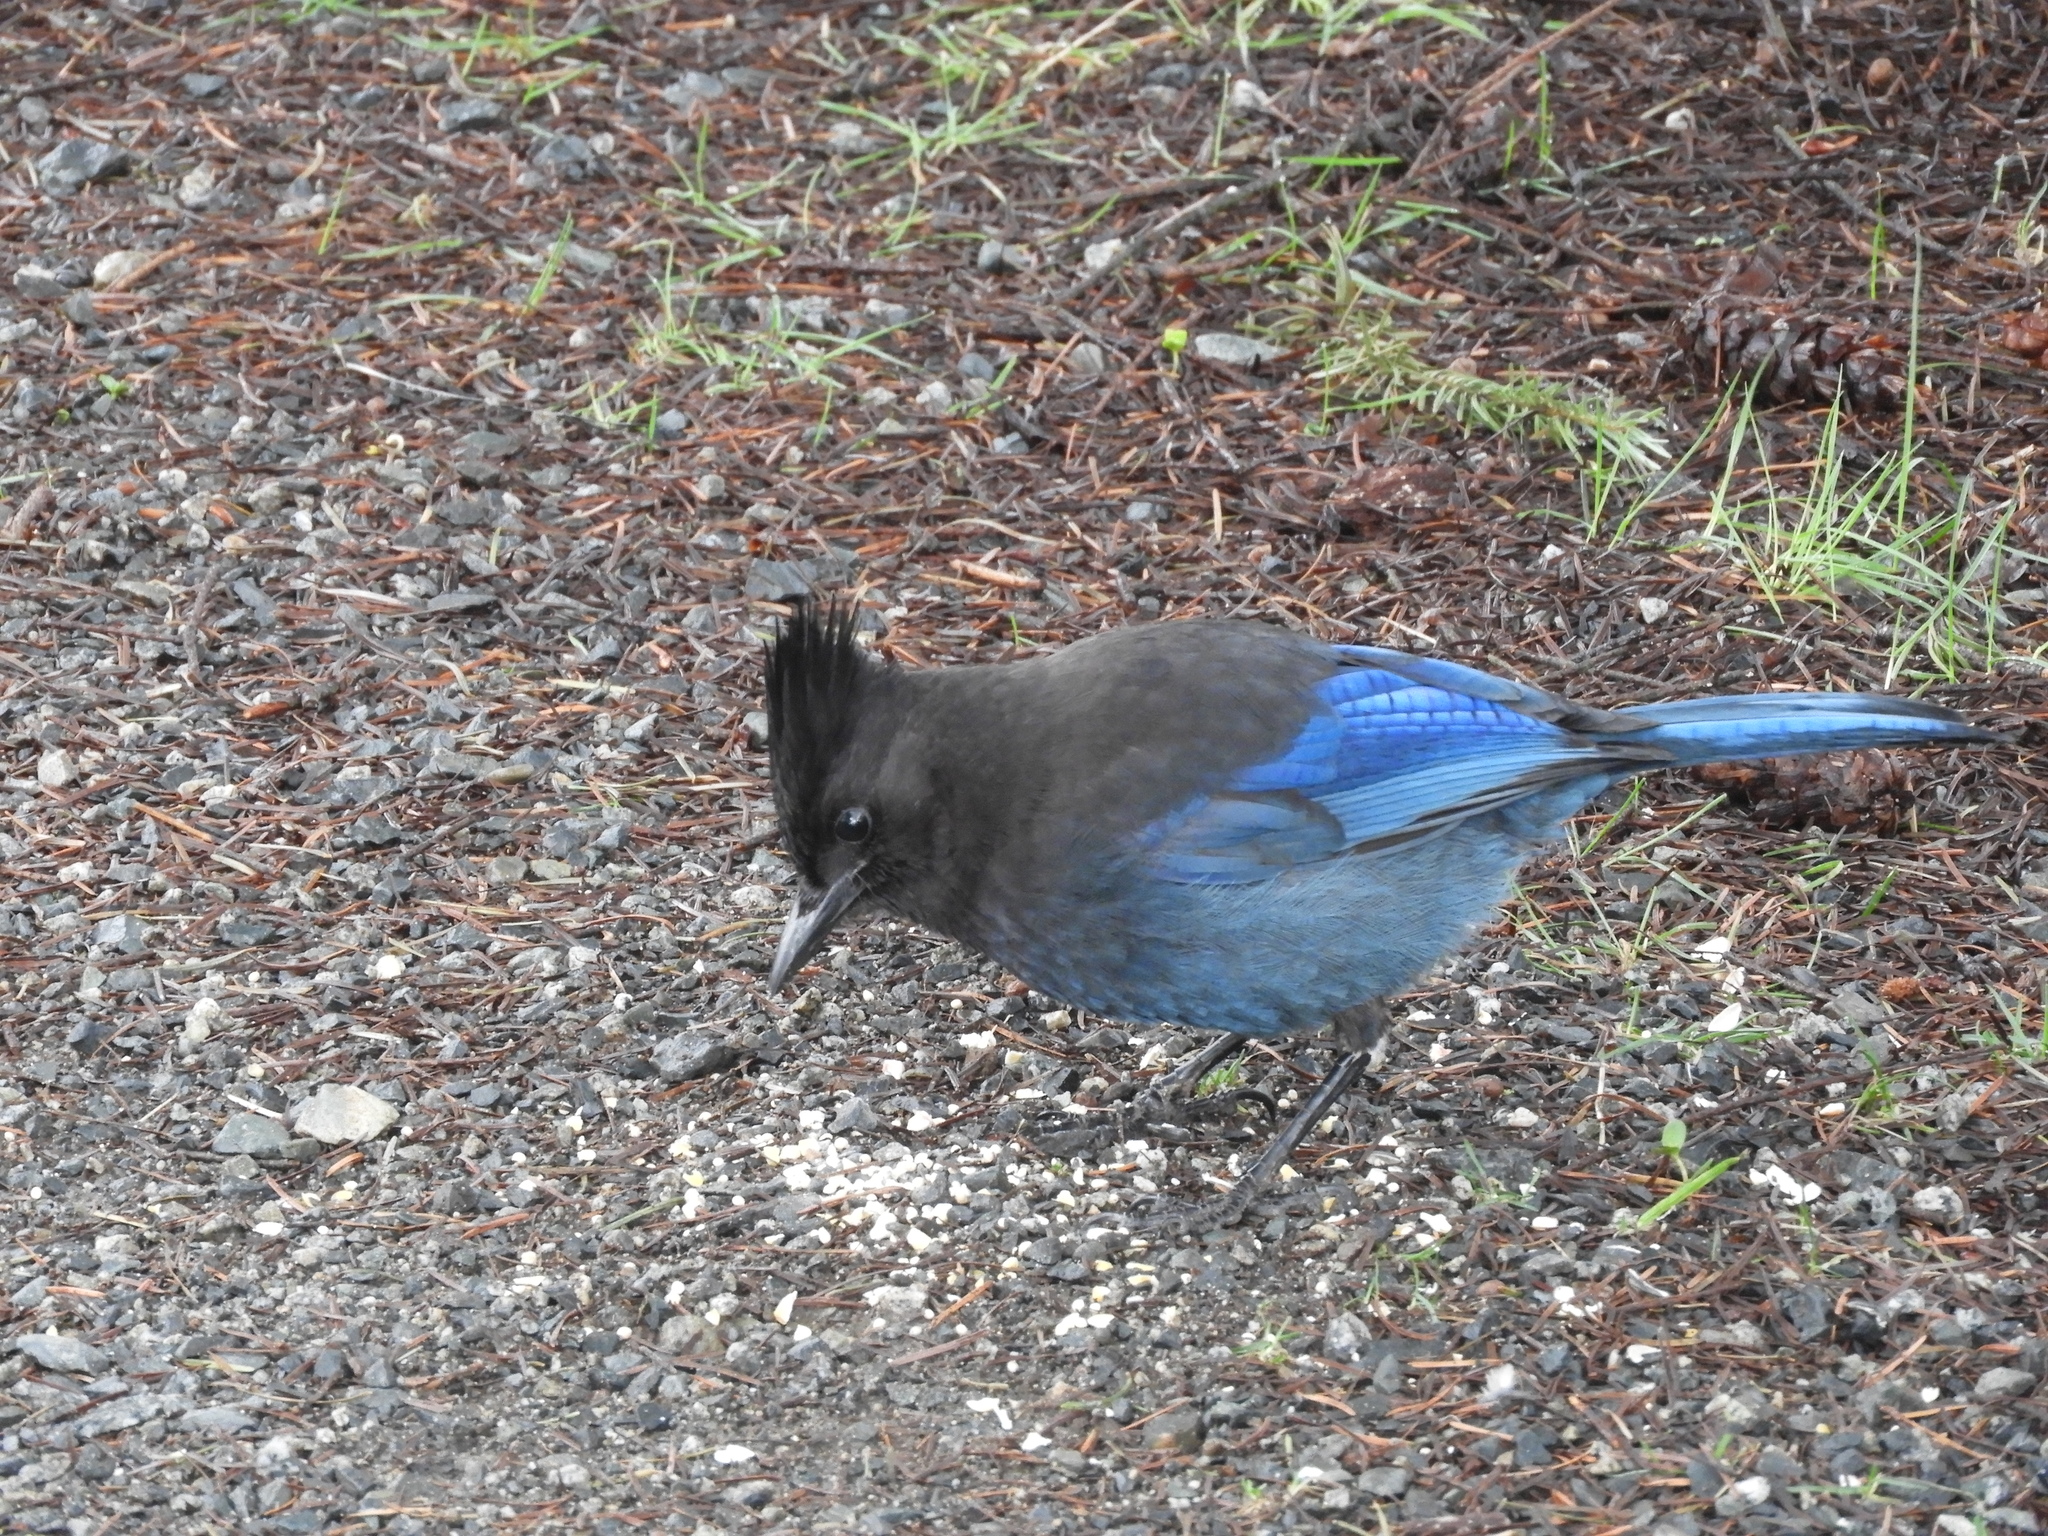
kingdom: Animalia
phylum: Chordata
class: Aves
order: Passeriformes
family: Corvidae
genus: Cyanocitta
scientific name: Cyanocitta stelleri
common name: Steller's jay
